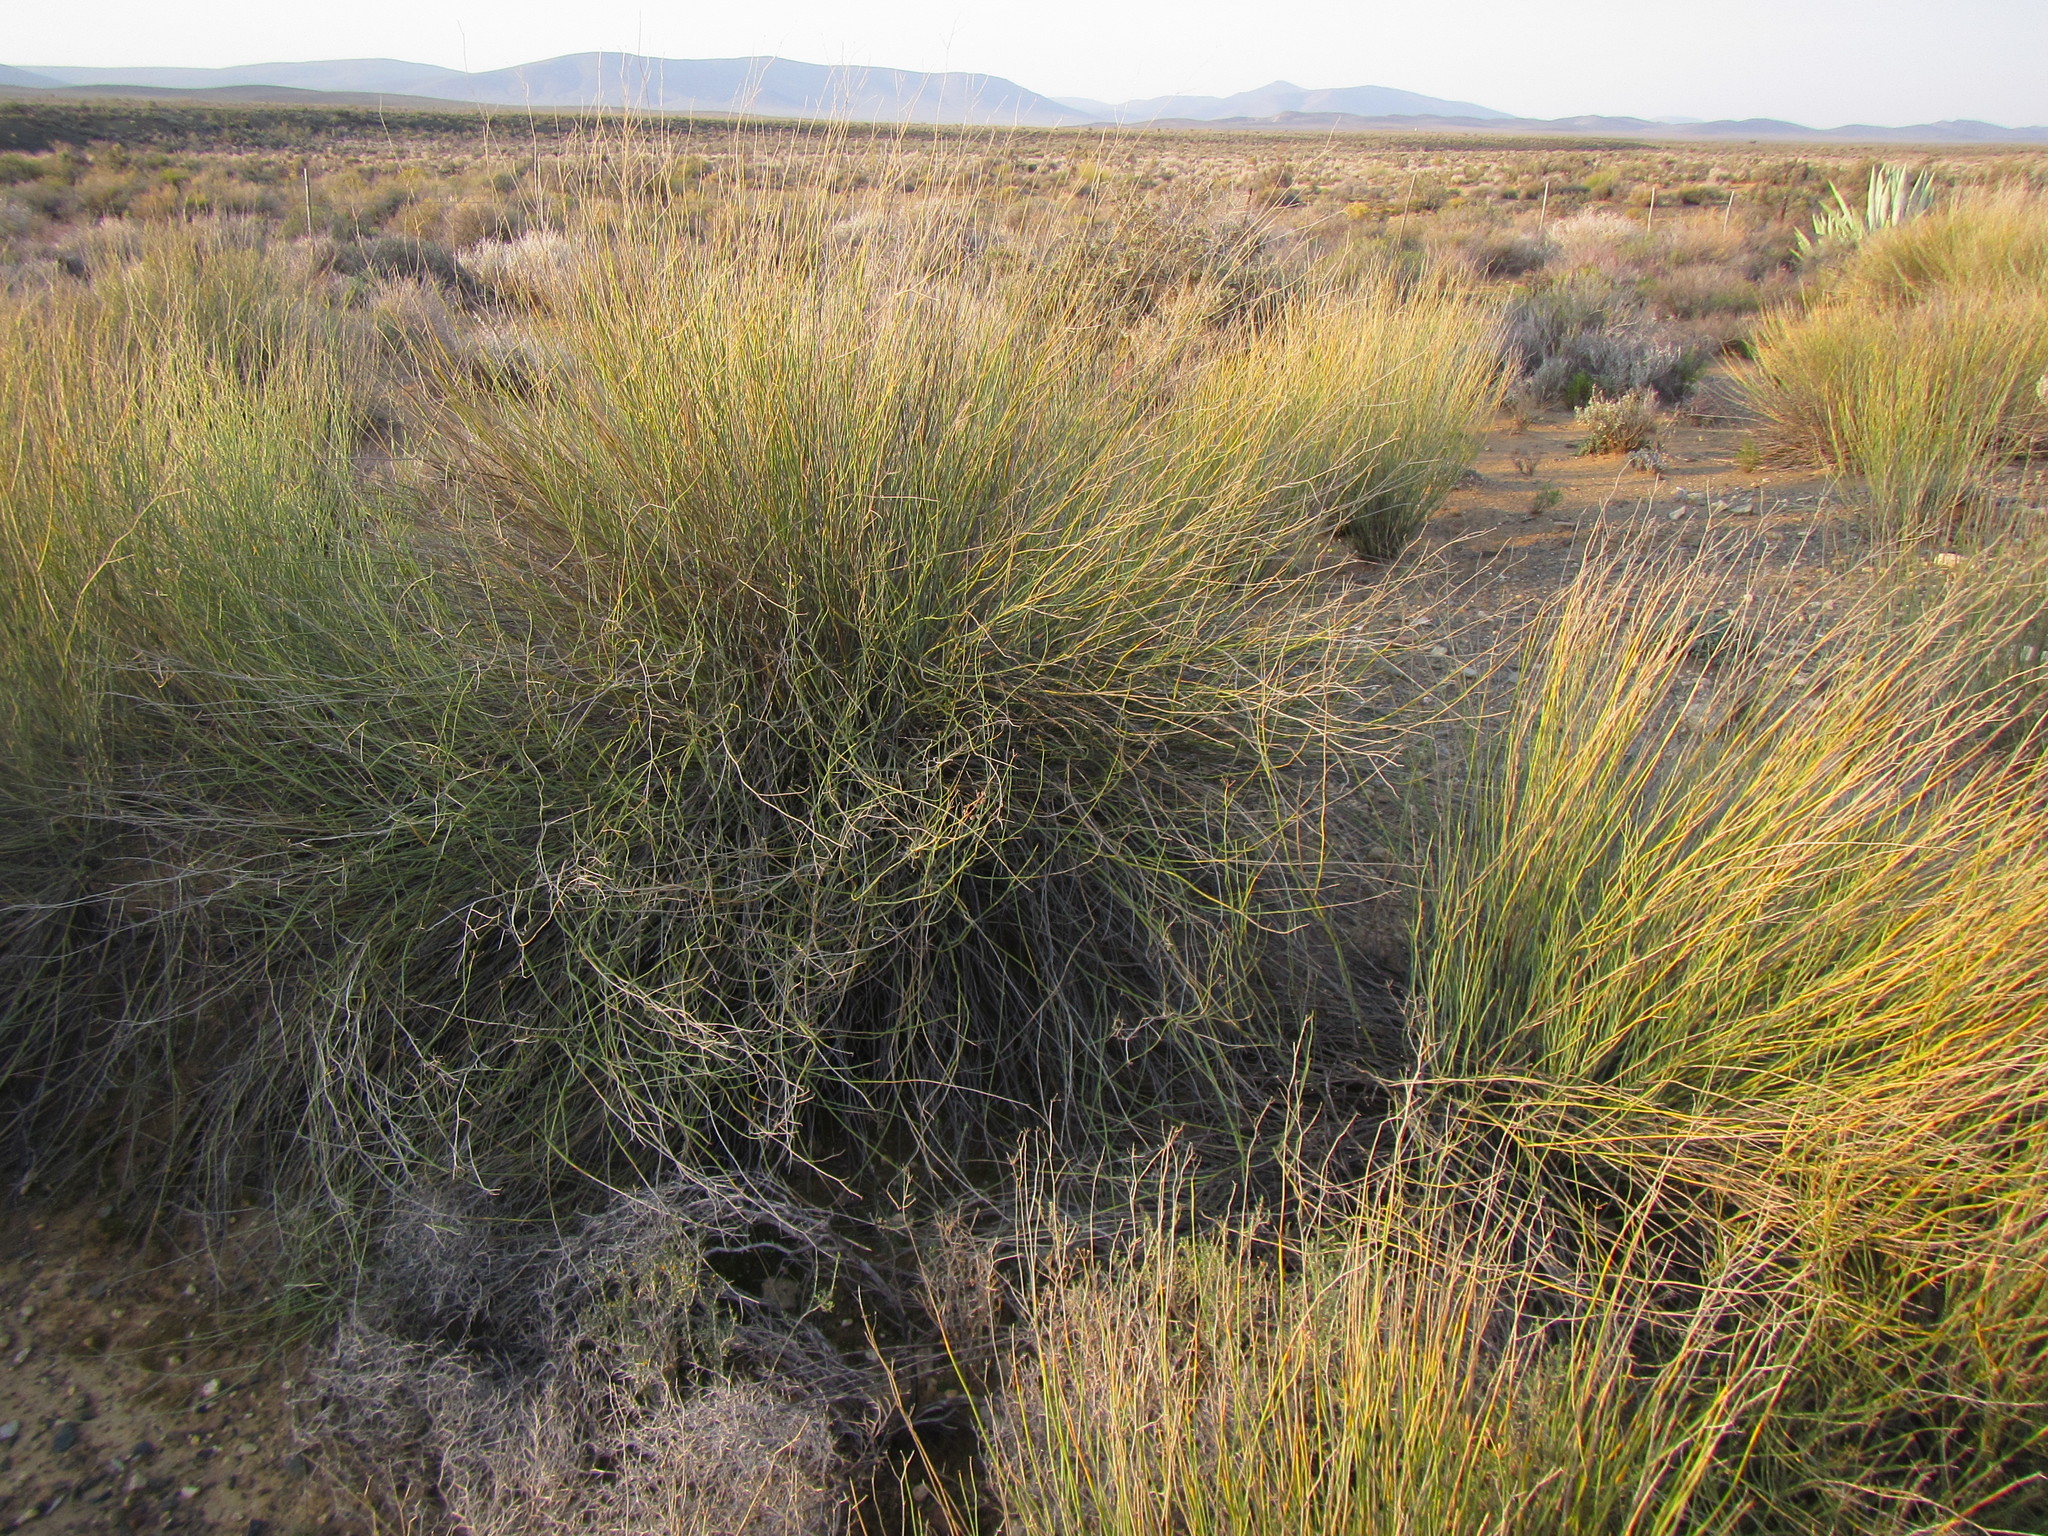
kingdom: Plantae
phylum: Tracheophyta
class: Magnoliopsida
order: Apiales
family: Apiaceae
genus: Deverra
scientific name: Deverra aphylla
